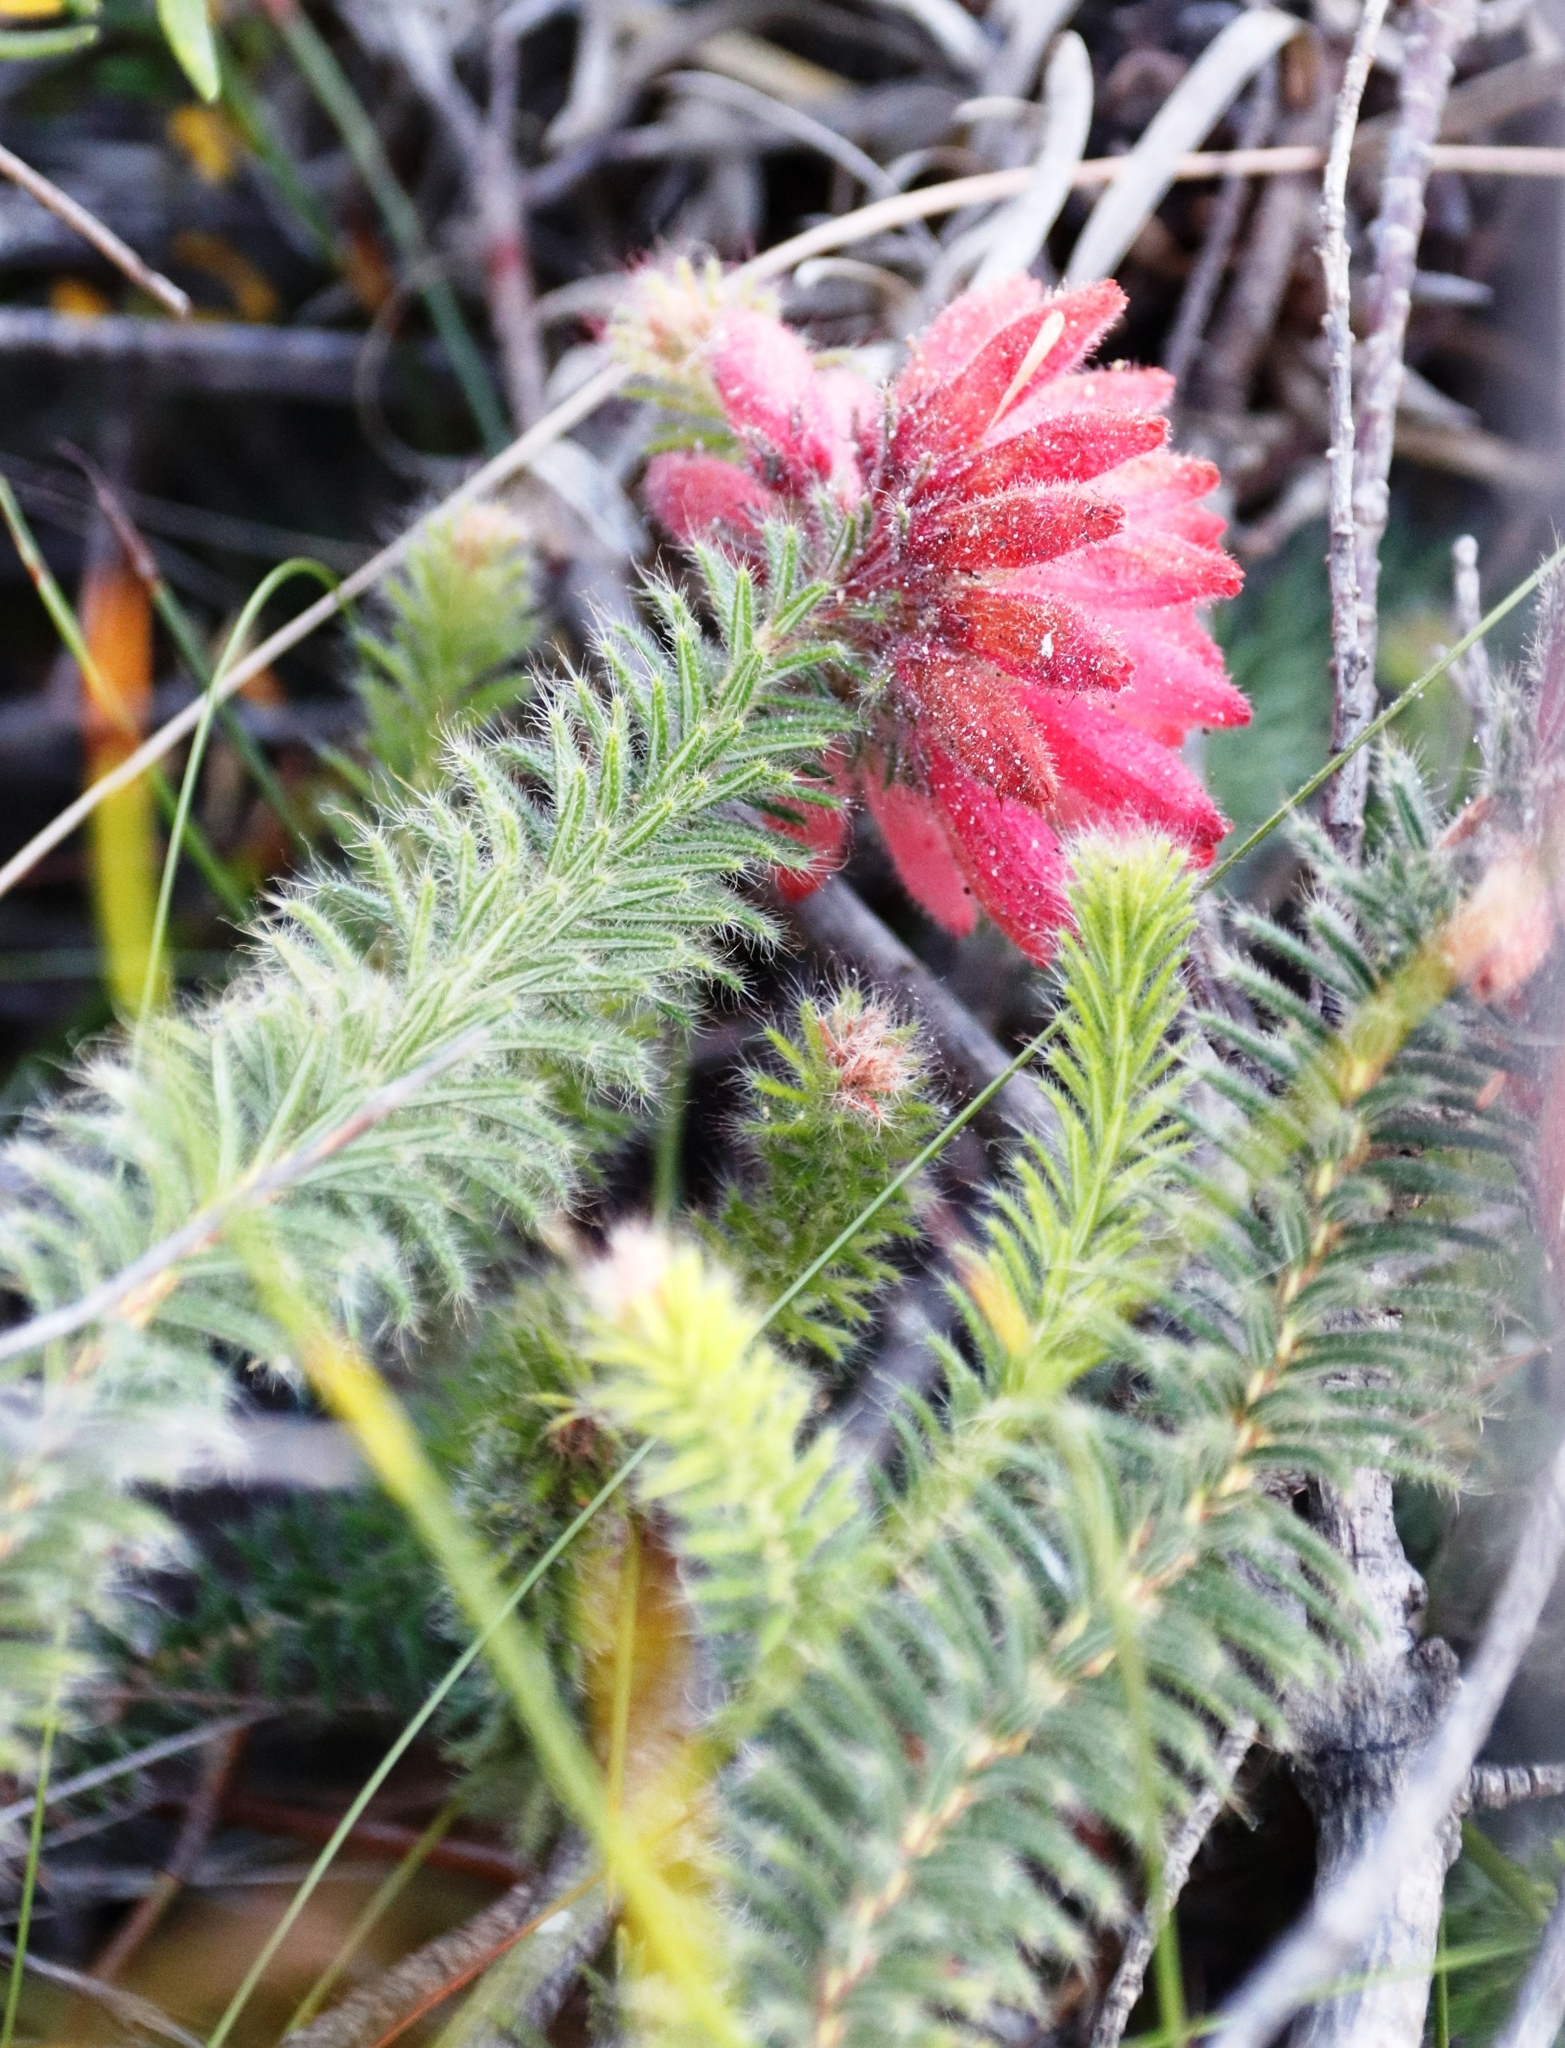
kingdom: Plantae
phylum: Tracheophyta
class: Magnoliopsida
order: Ericales
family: Ericaceae
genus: Erica
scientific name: Erica cerinthoides
